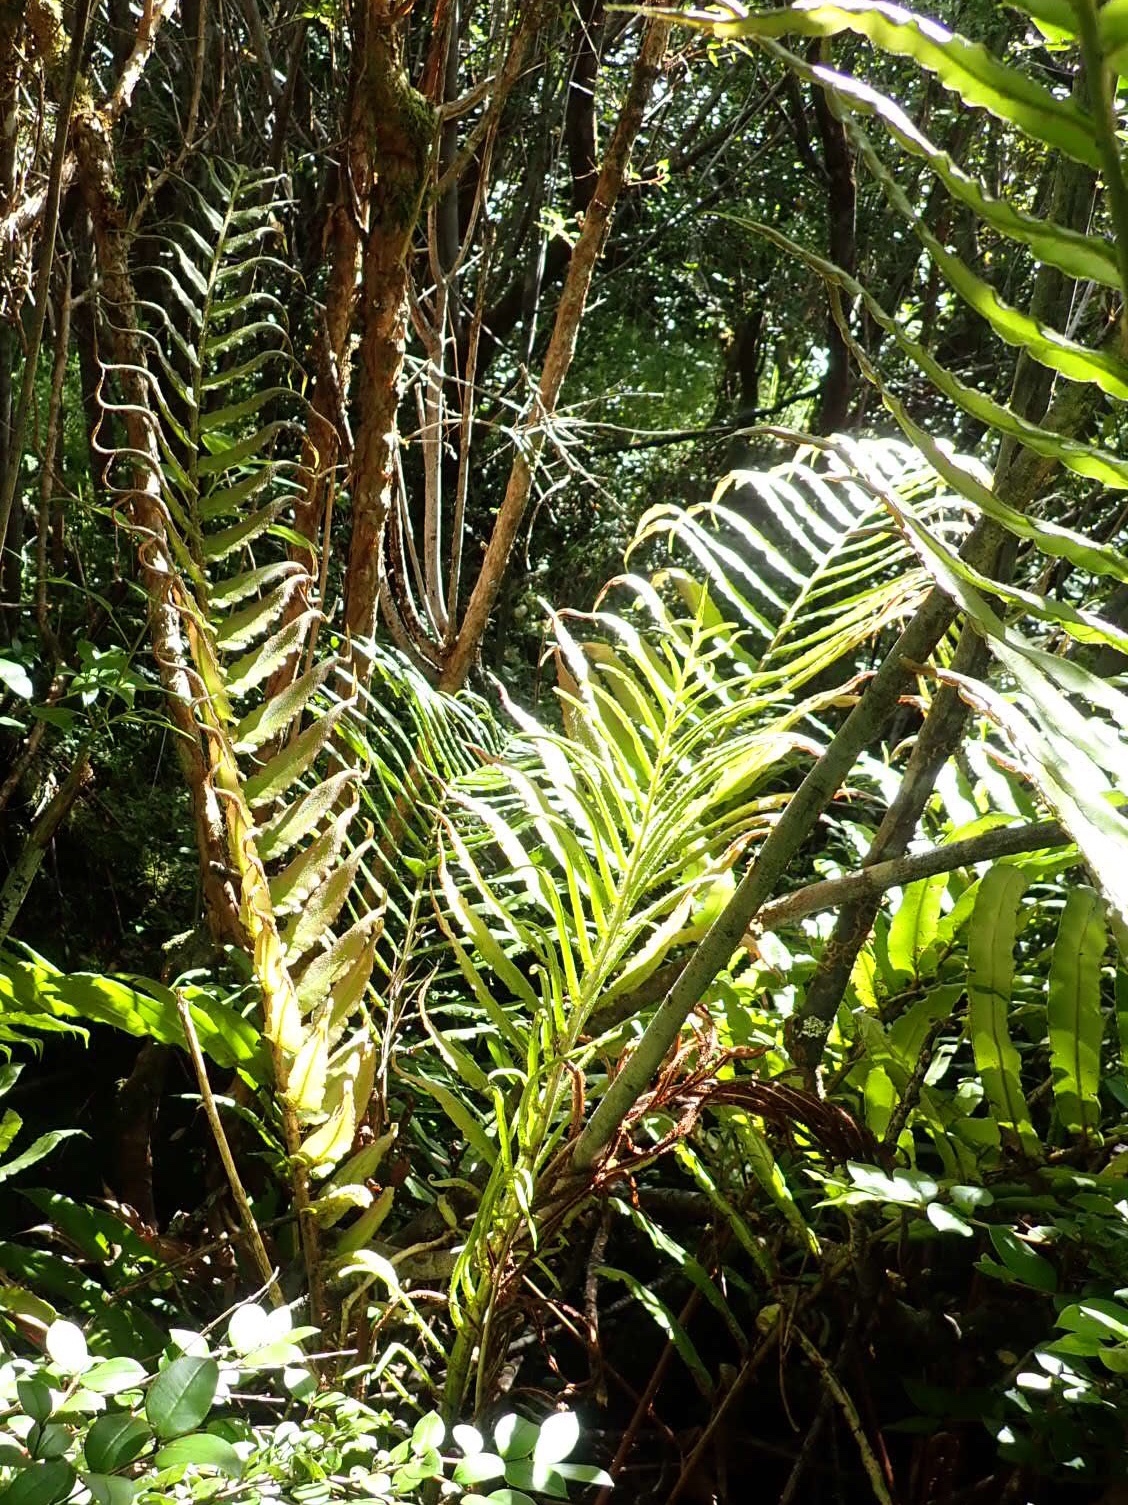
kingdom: Plantae
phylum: Tracheophyta
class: Polypodiopsida
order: Polypodiales
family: Blechnaceae
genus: Parablechnum
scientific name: Parablechnum chilense
